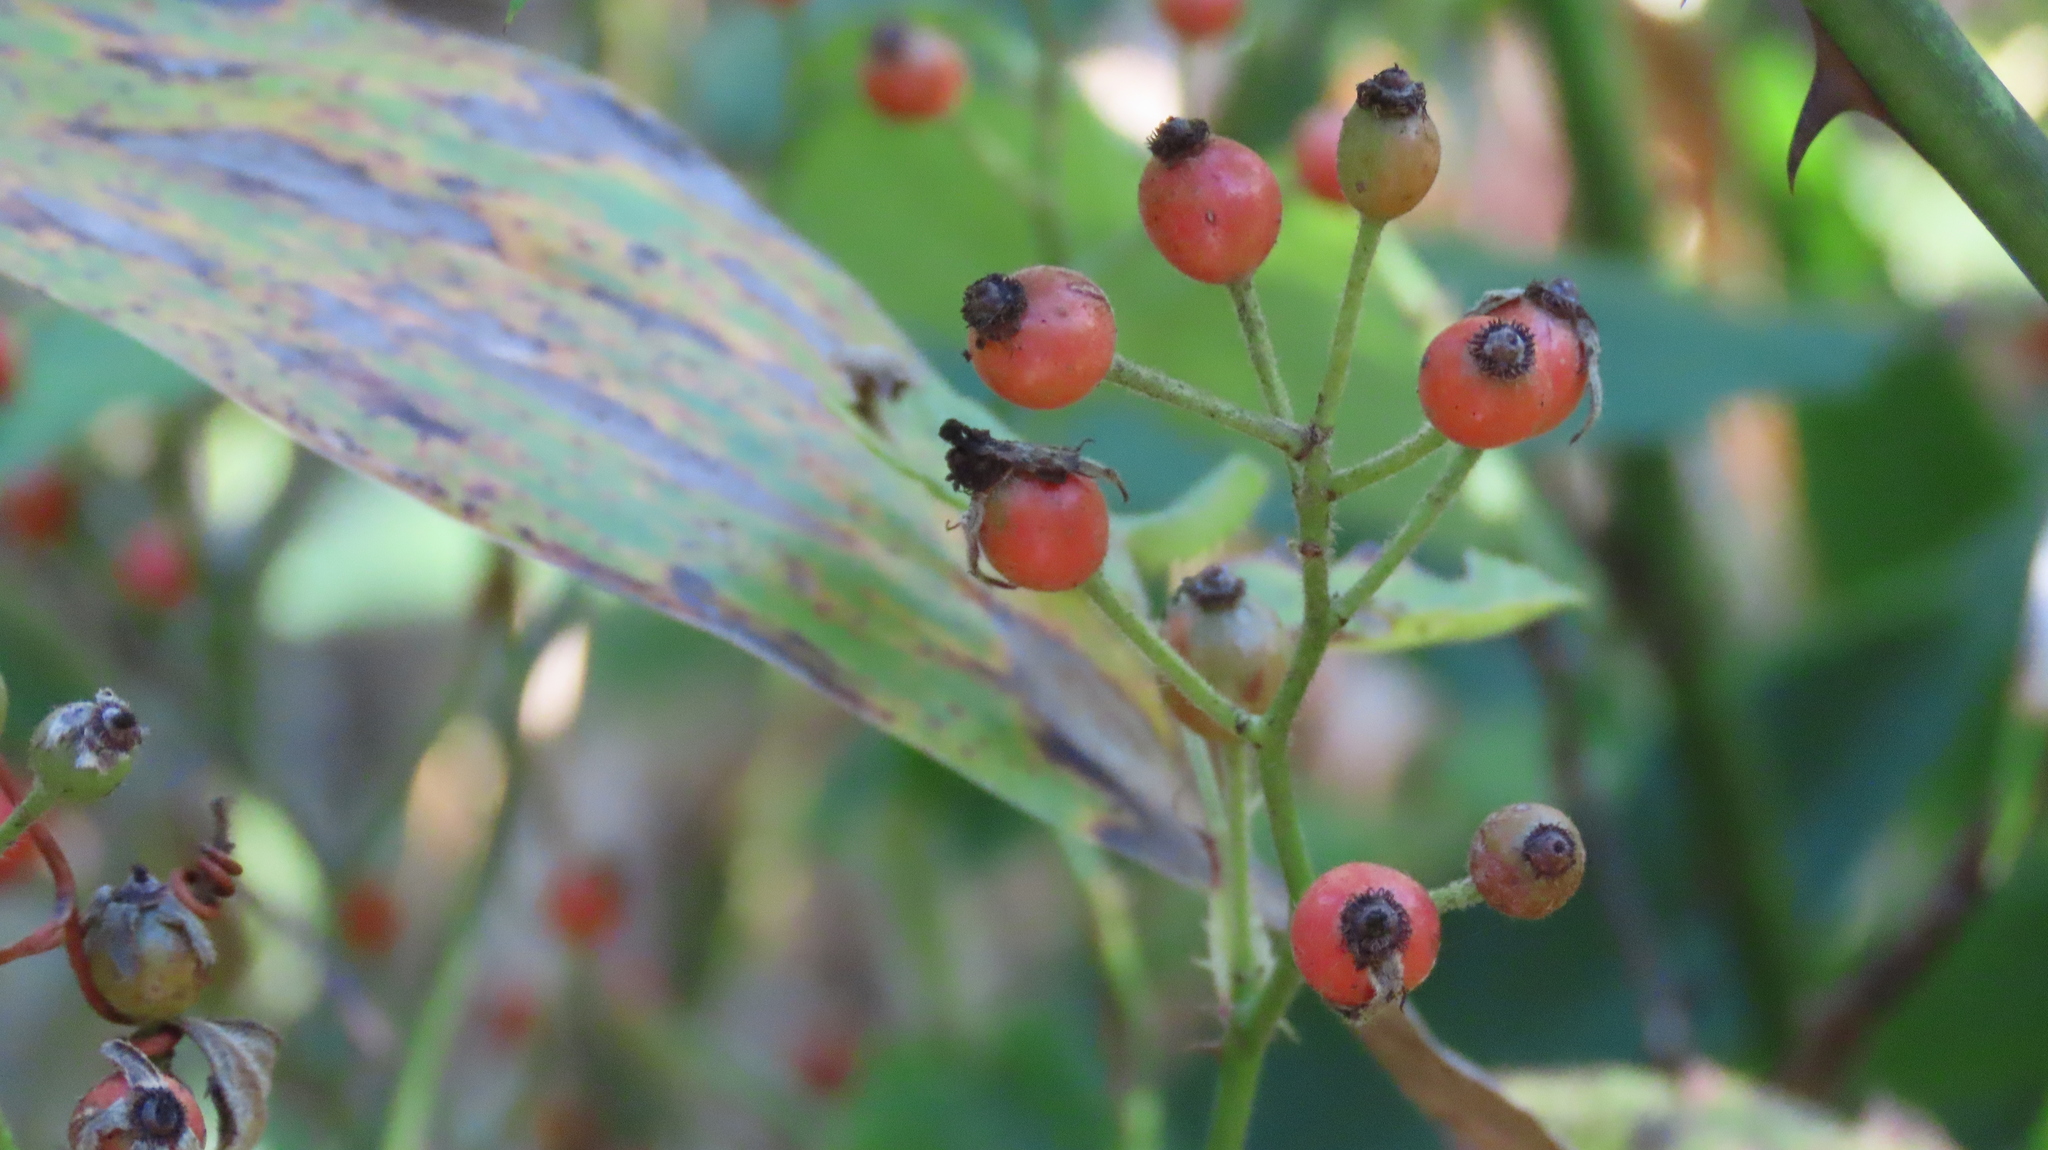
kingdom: Plantae
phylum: Tracheophyta
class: Magnoliopsida
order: Rosales
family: Rosaceae
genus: Rosa
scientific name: Rosa multiflora
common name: Multiflora rose
